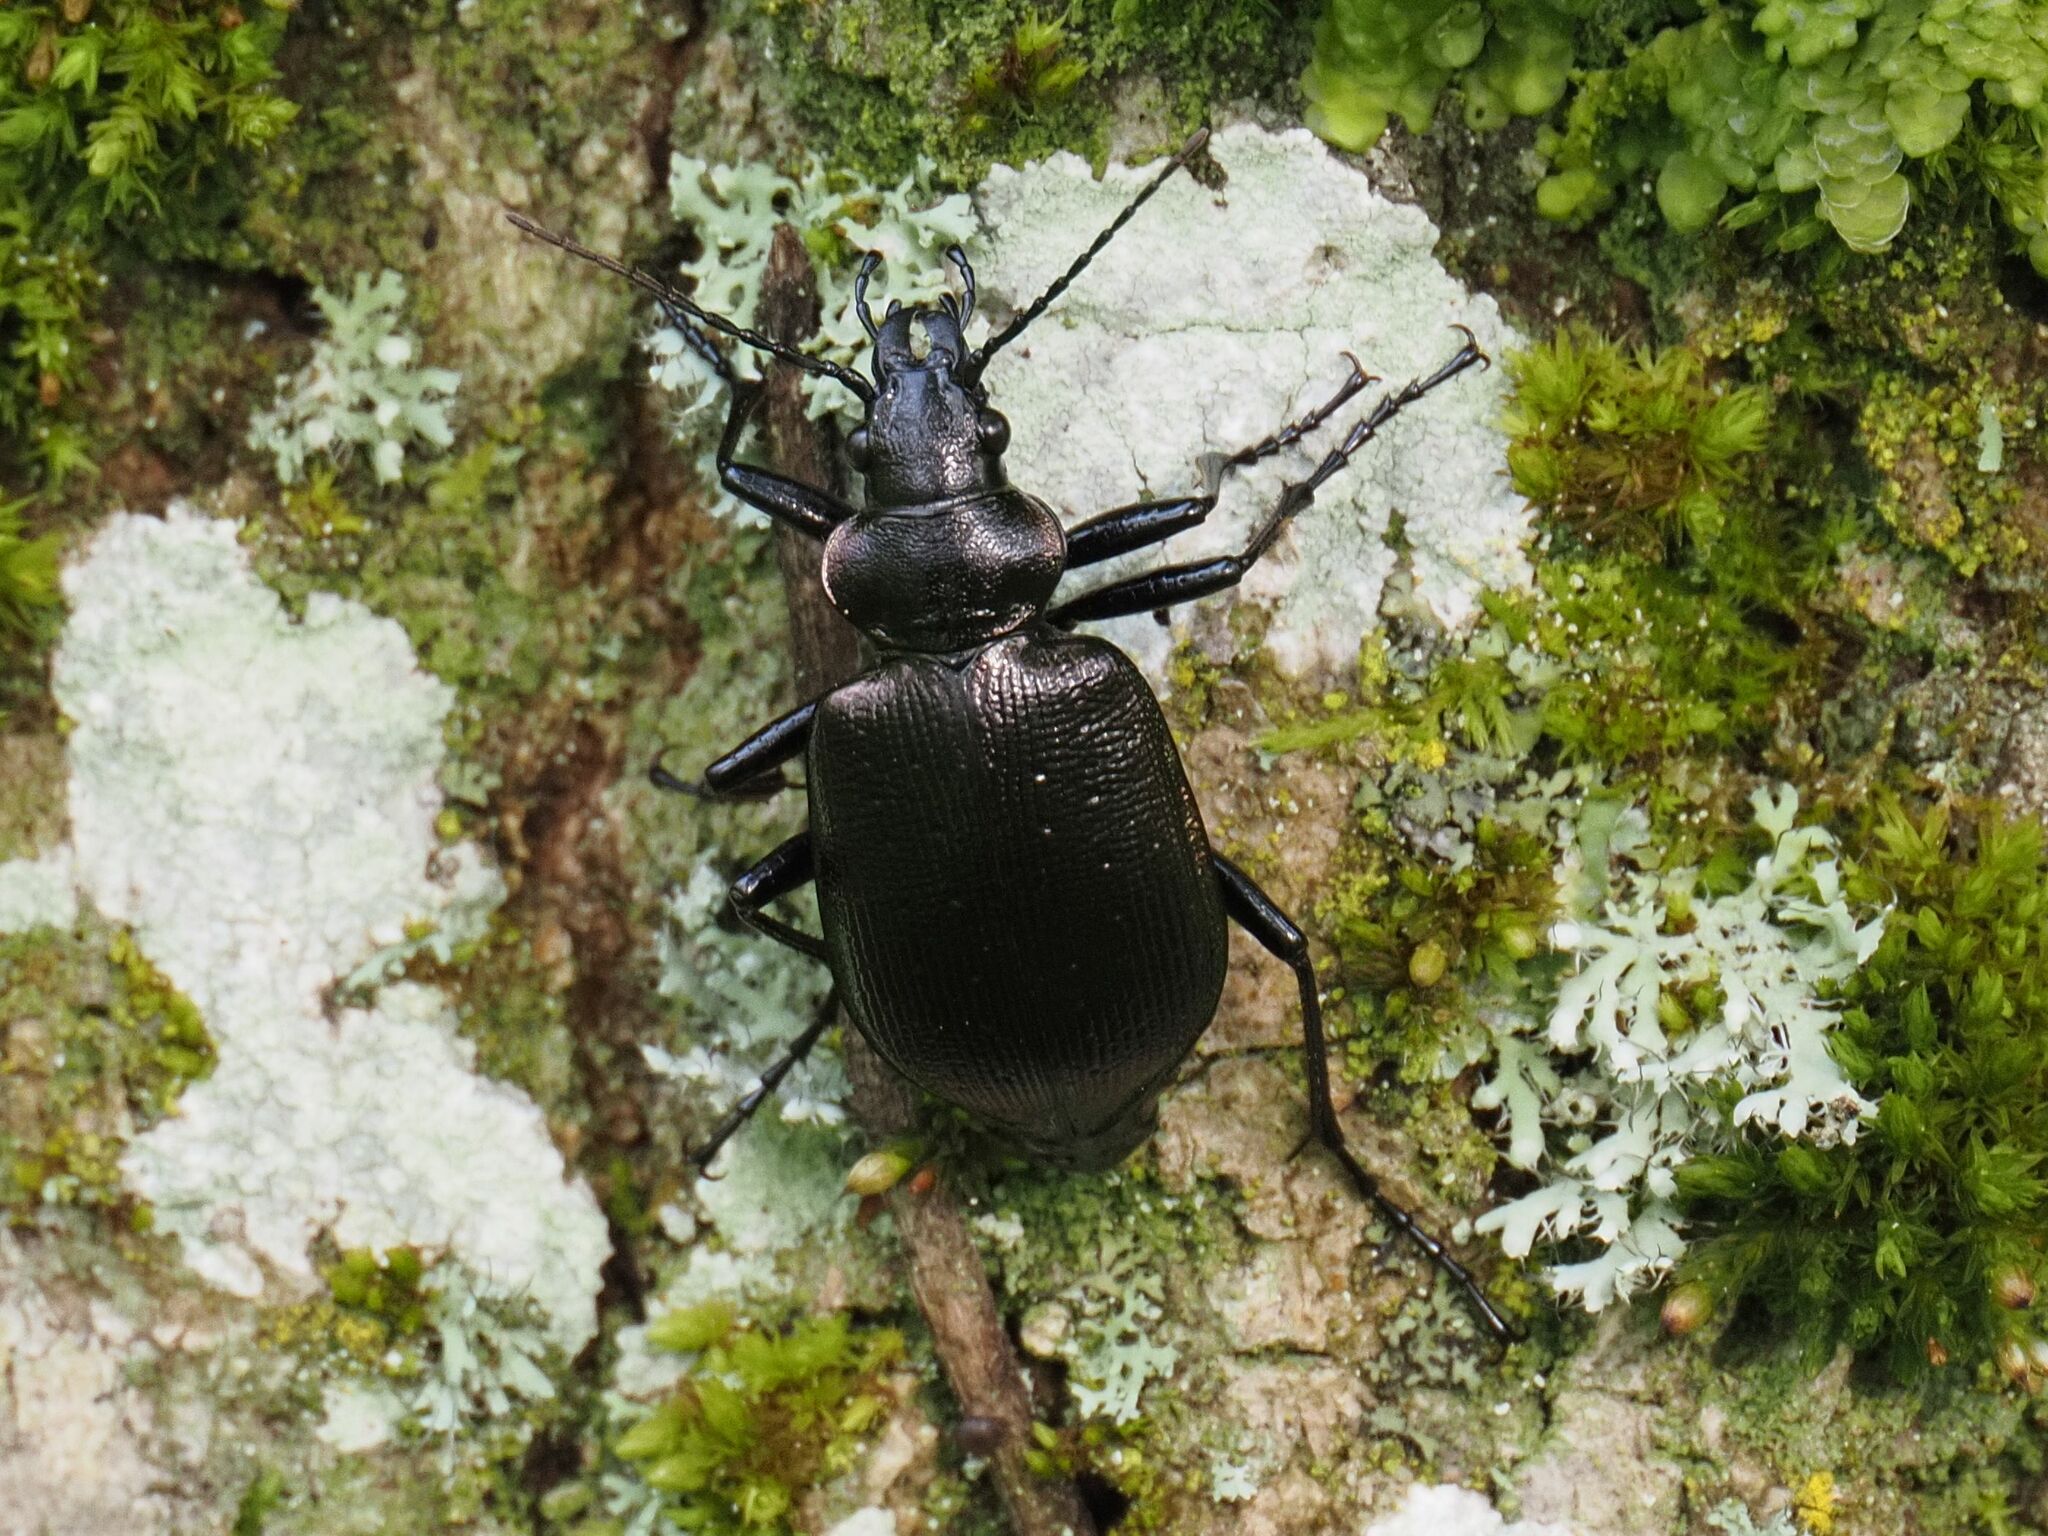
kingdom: Animalia
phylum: Arthropoda
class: Insecta
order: Coleoptera
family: Carabidae
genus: Calosoma
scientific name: Calosoma inquisitor
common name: Caterpillar-hunter
